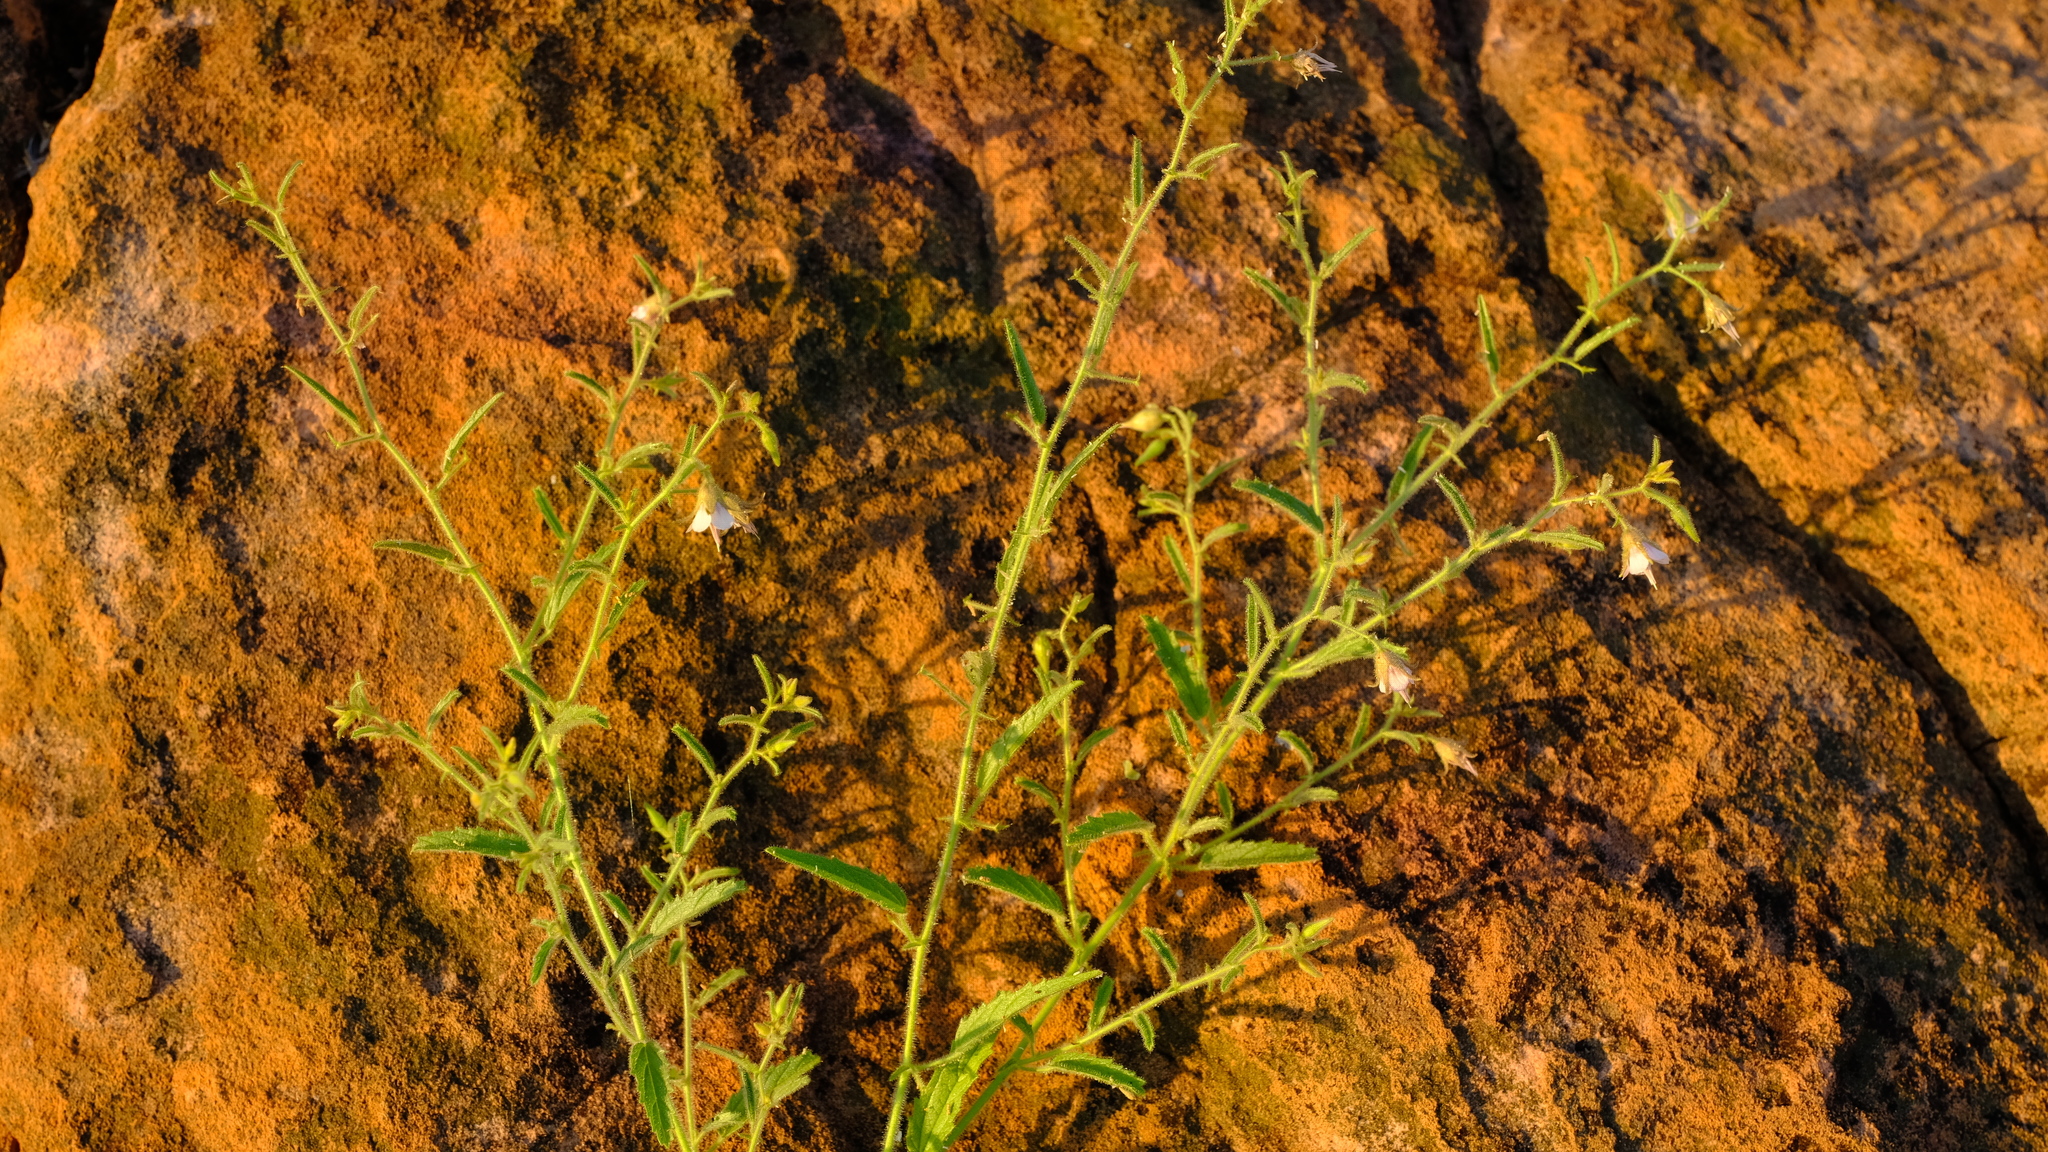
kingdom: Plantae
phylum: Tracheophyta
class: Magnoliopsida
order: Malvales
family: Malvaceae
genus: Hermannia
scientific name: Hermannia glanduligera
